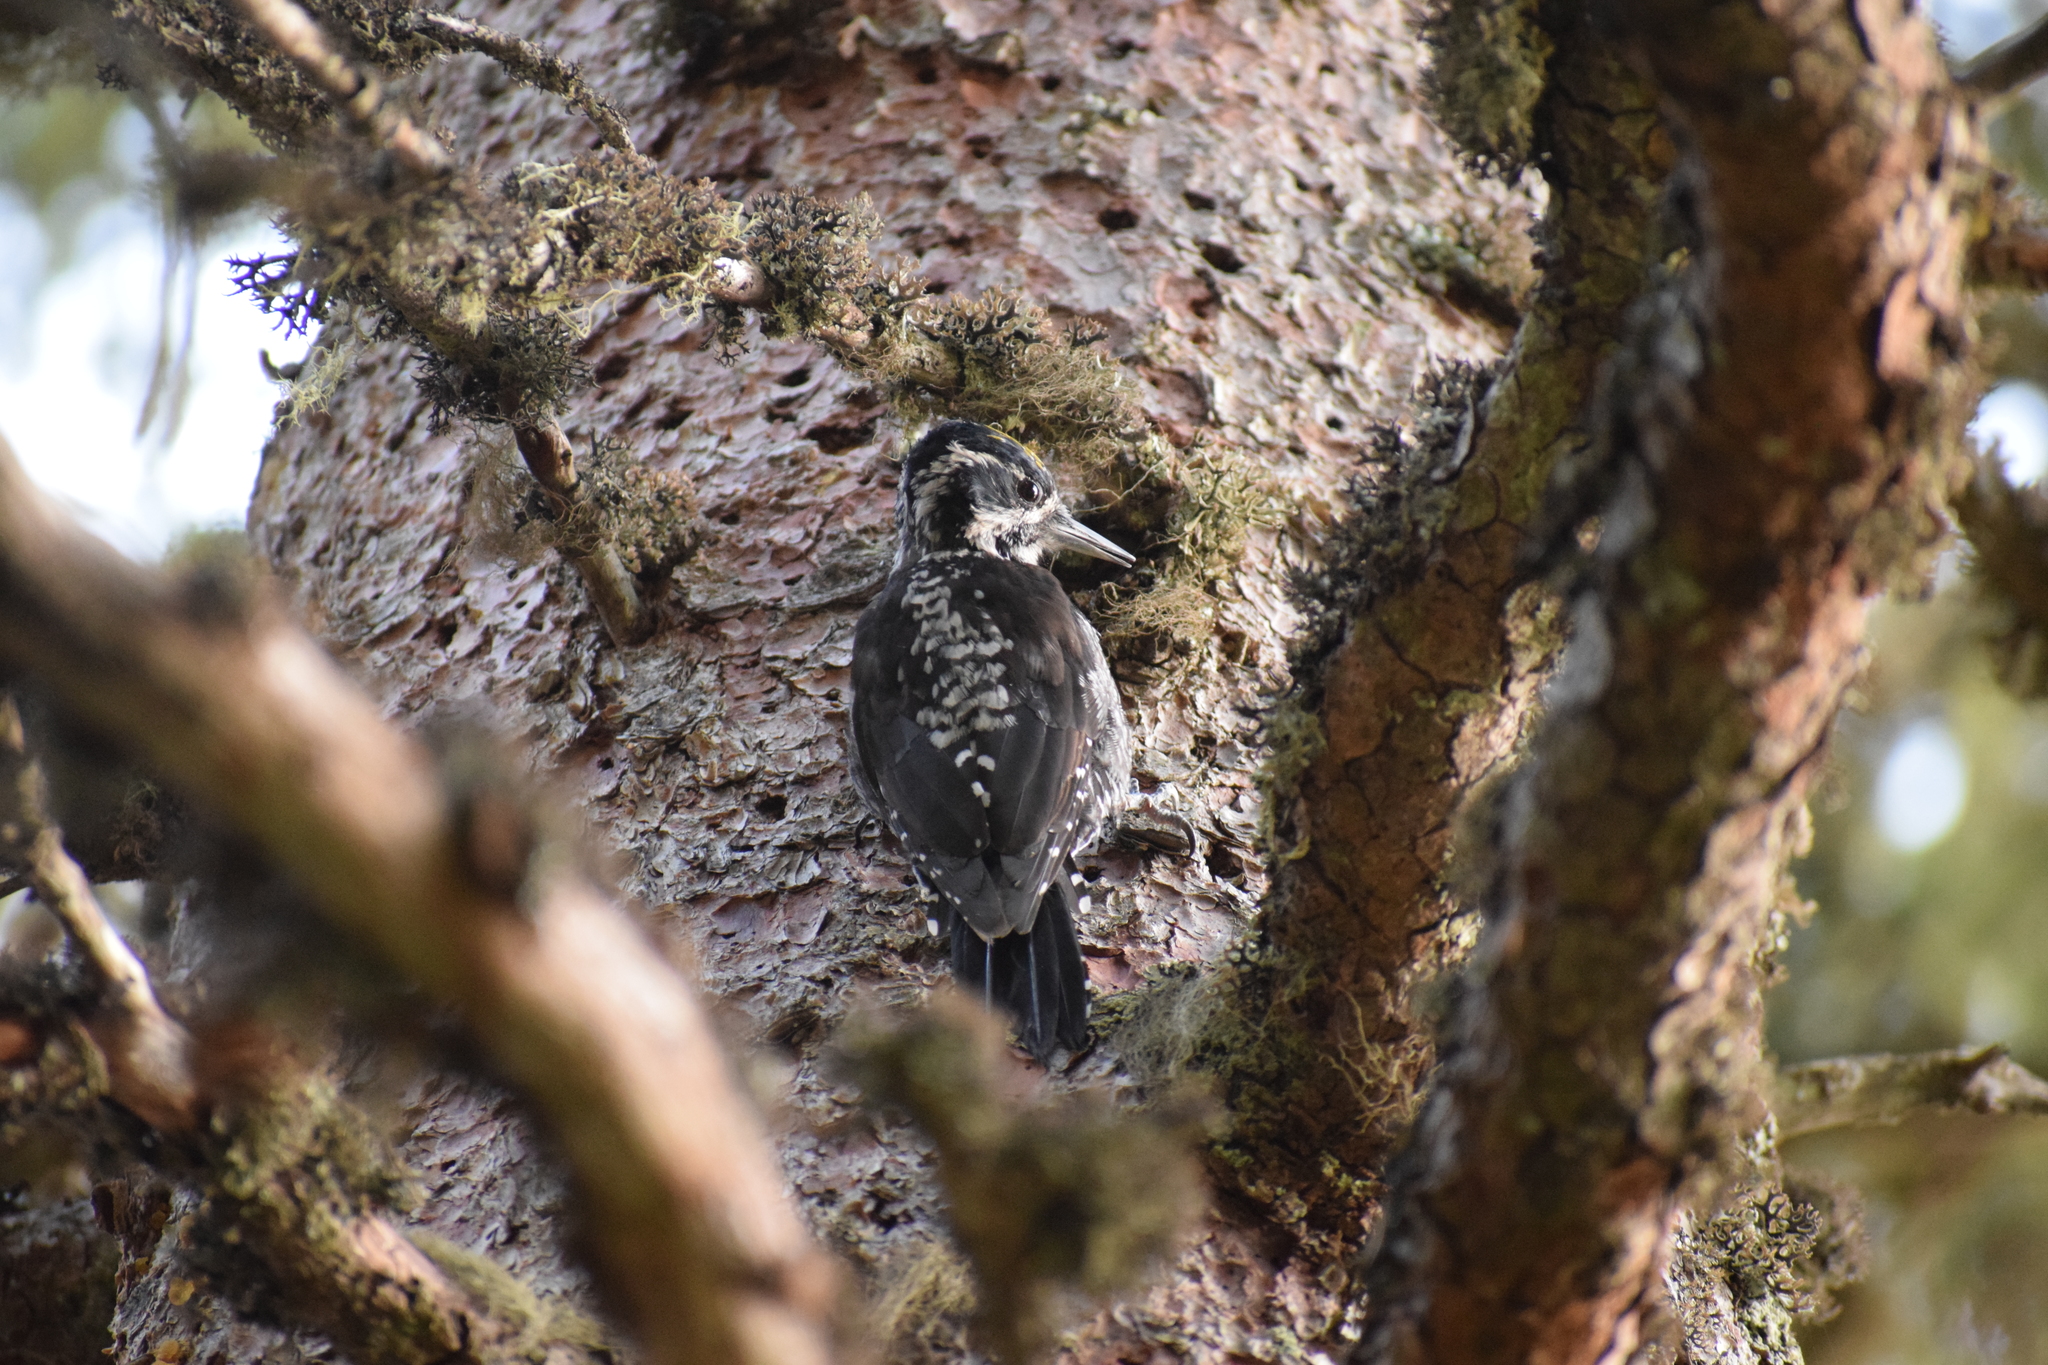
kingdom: Animalia
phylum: Chordata
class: Aves
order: Piciformes
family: Picidae
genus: Picoides
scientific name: Picoides tridactylus
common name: Eurasian three-toed woodpecker
